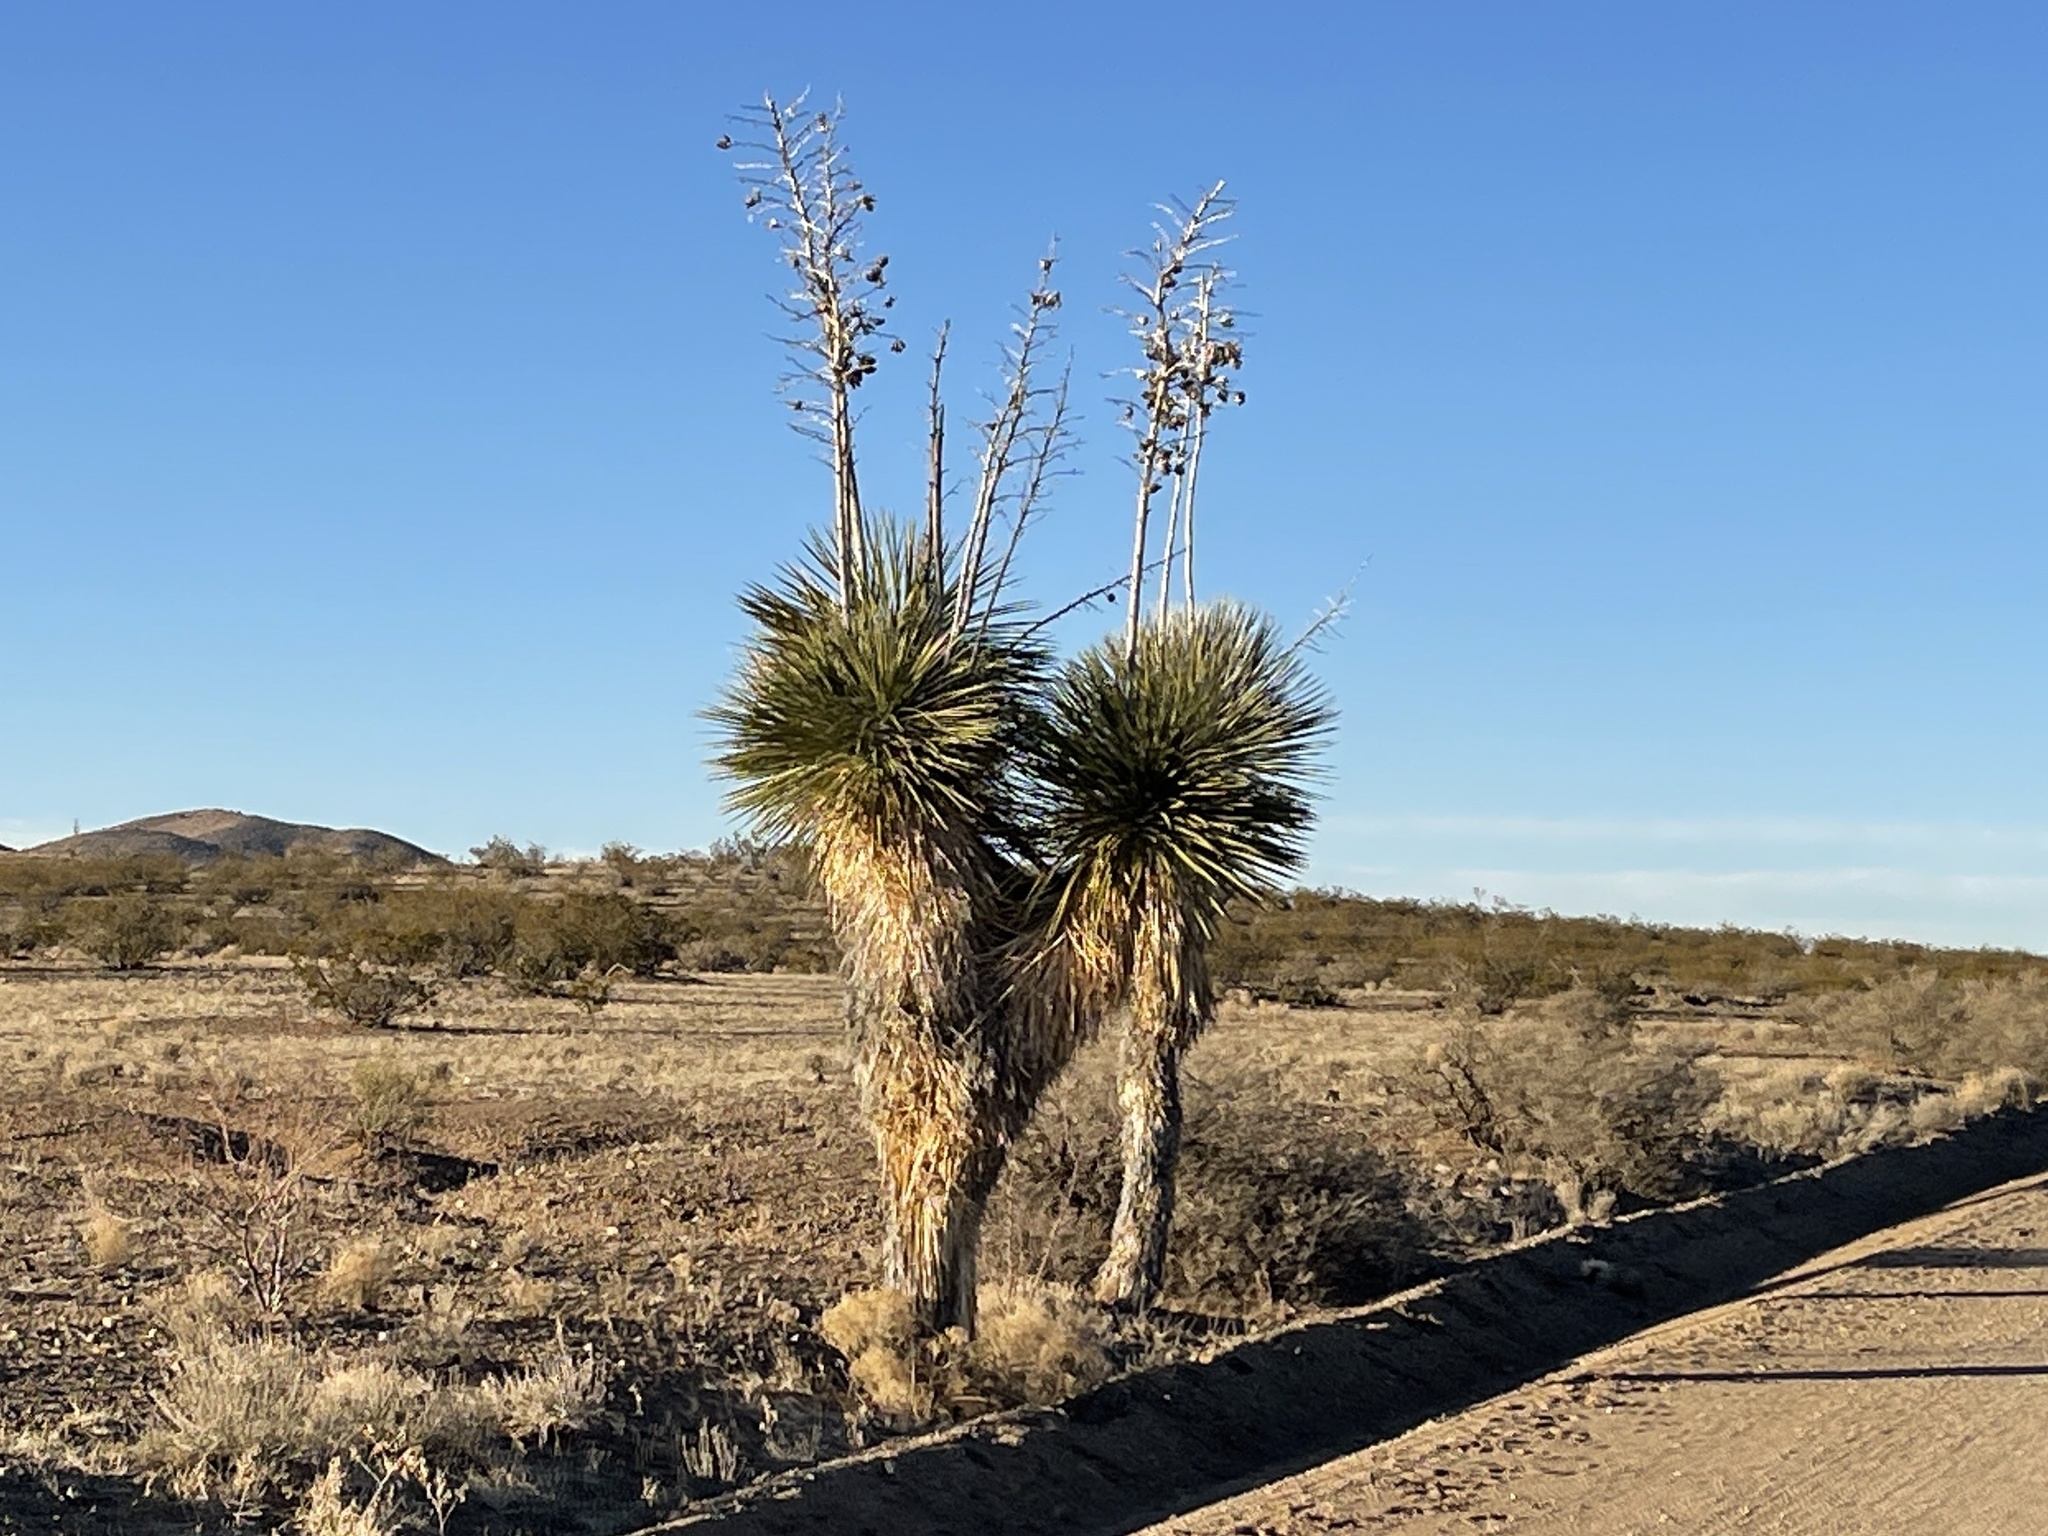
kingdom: Plantae
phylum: Tracheophyta
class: Liliopsida
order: Asparagales
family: Asparagaceae
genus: Yucca
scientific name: Yucca elata
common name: Palmella
